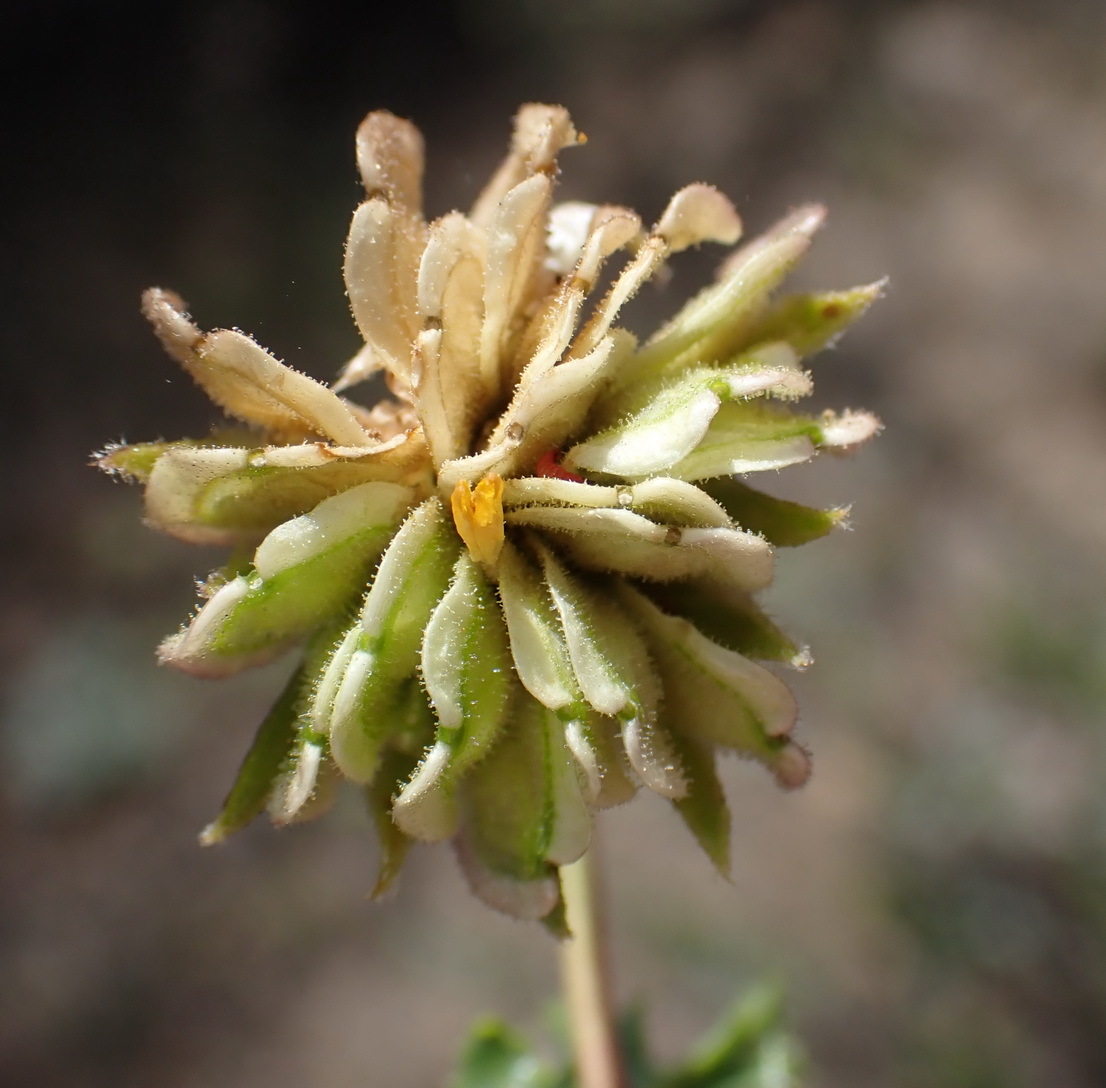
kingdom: Plantae
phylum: Tracheophyta
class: Magnoliopsida
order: Asterales
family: Asteraceae
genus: Dimorphotheca
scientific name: Dimorphotheca cuneata
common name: Daisy
